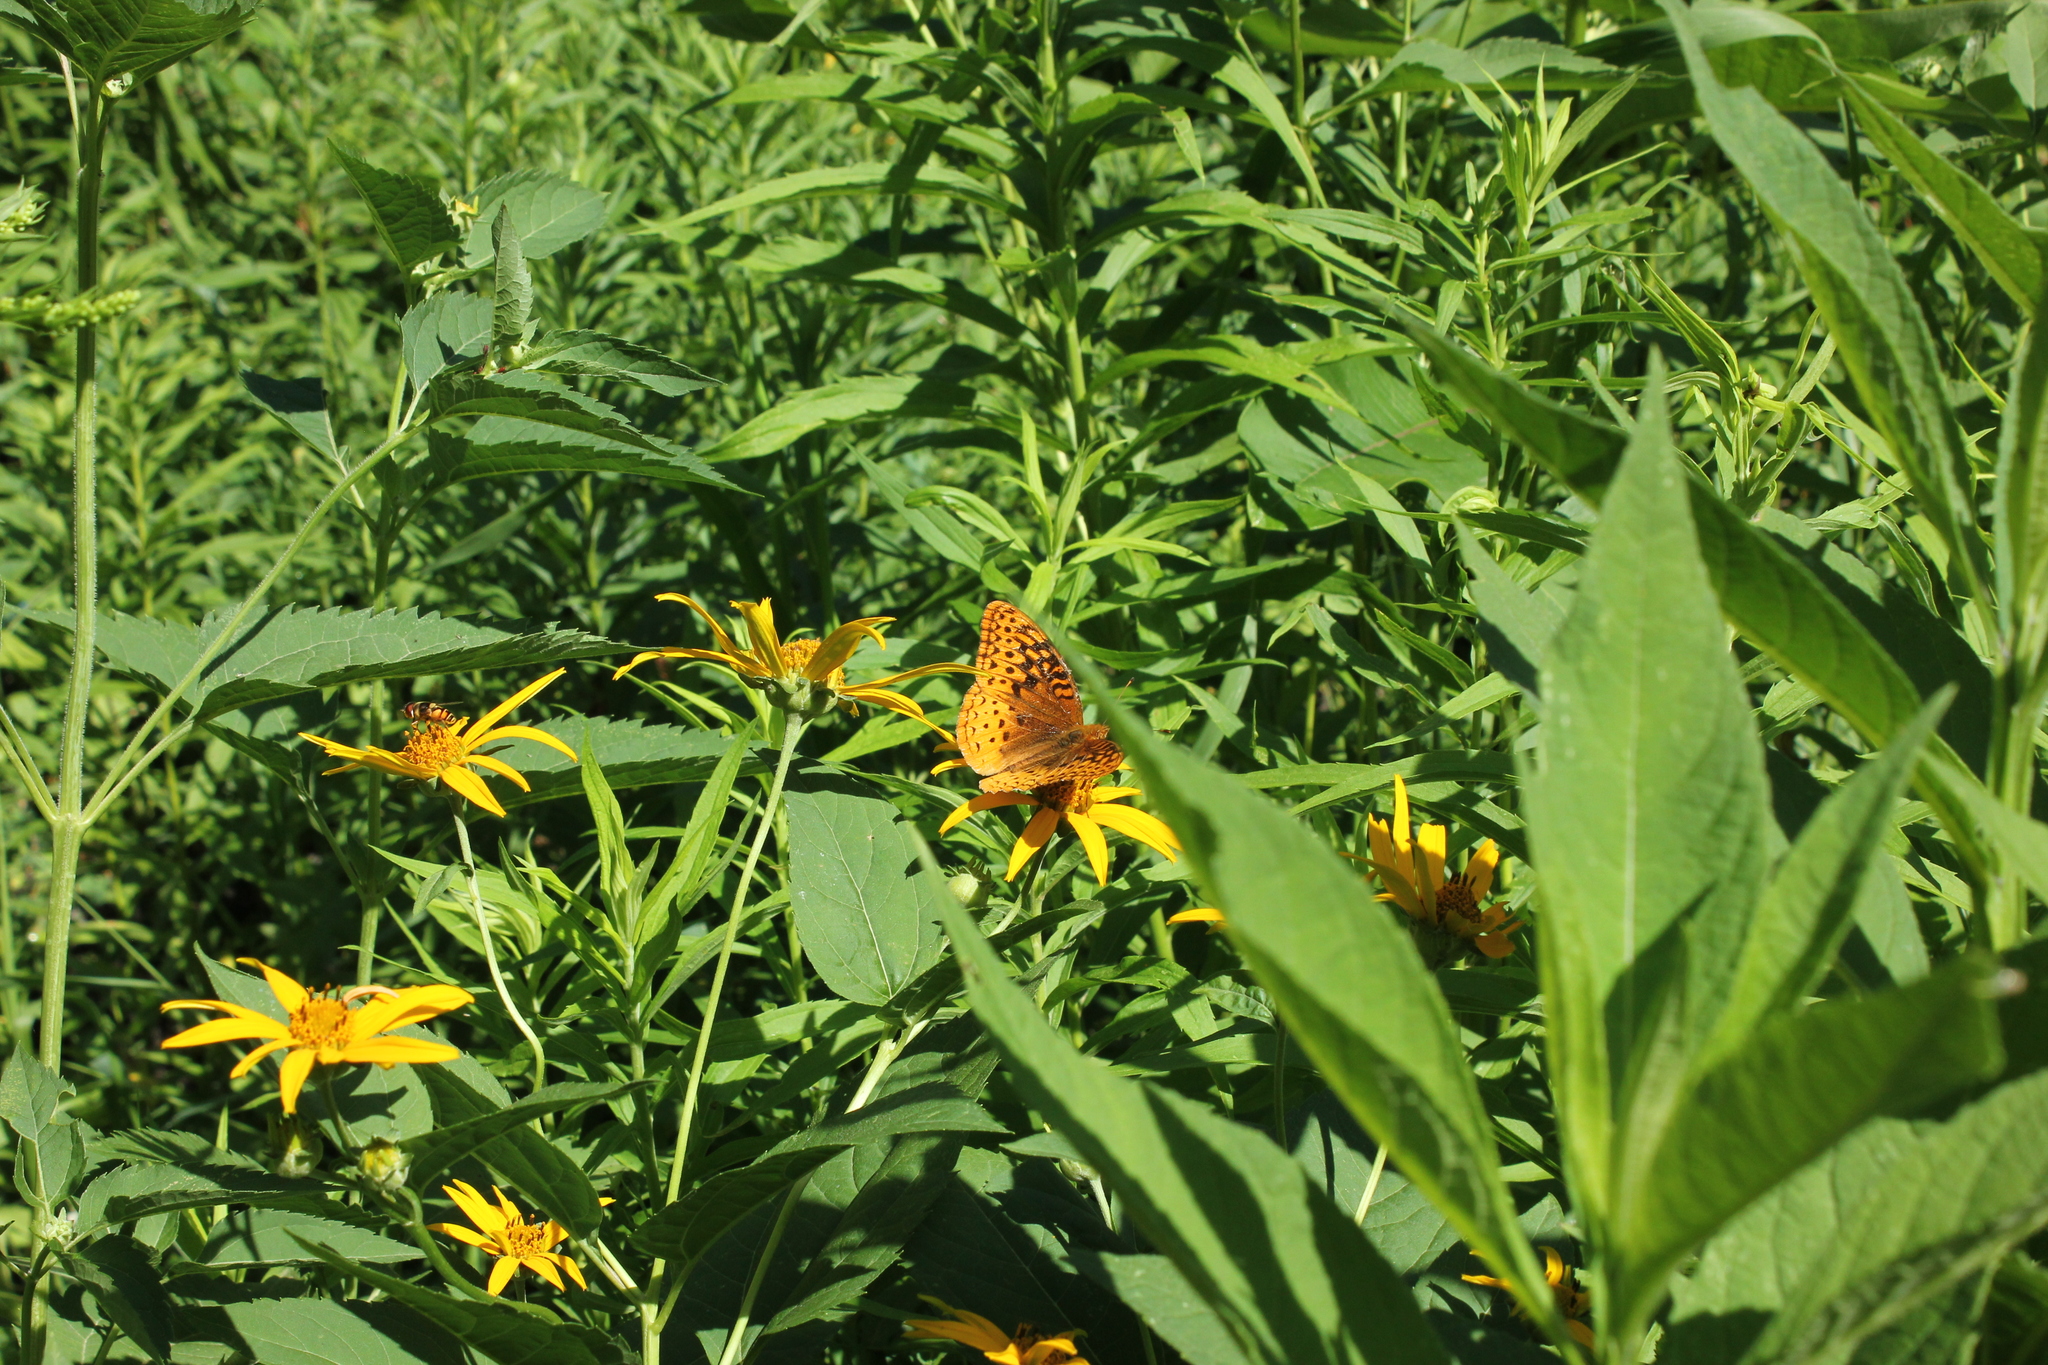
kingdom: Animalia
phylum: Arthropoda
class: Insecta
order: Lepidoptera
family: Nymphalidae
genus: Speyeria
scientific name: Speyeria cybele
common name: Great spangled fritillary
